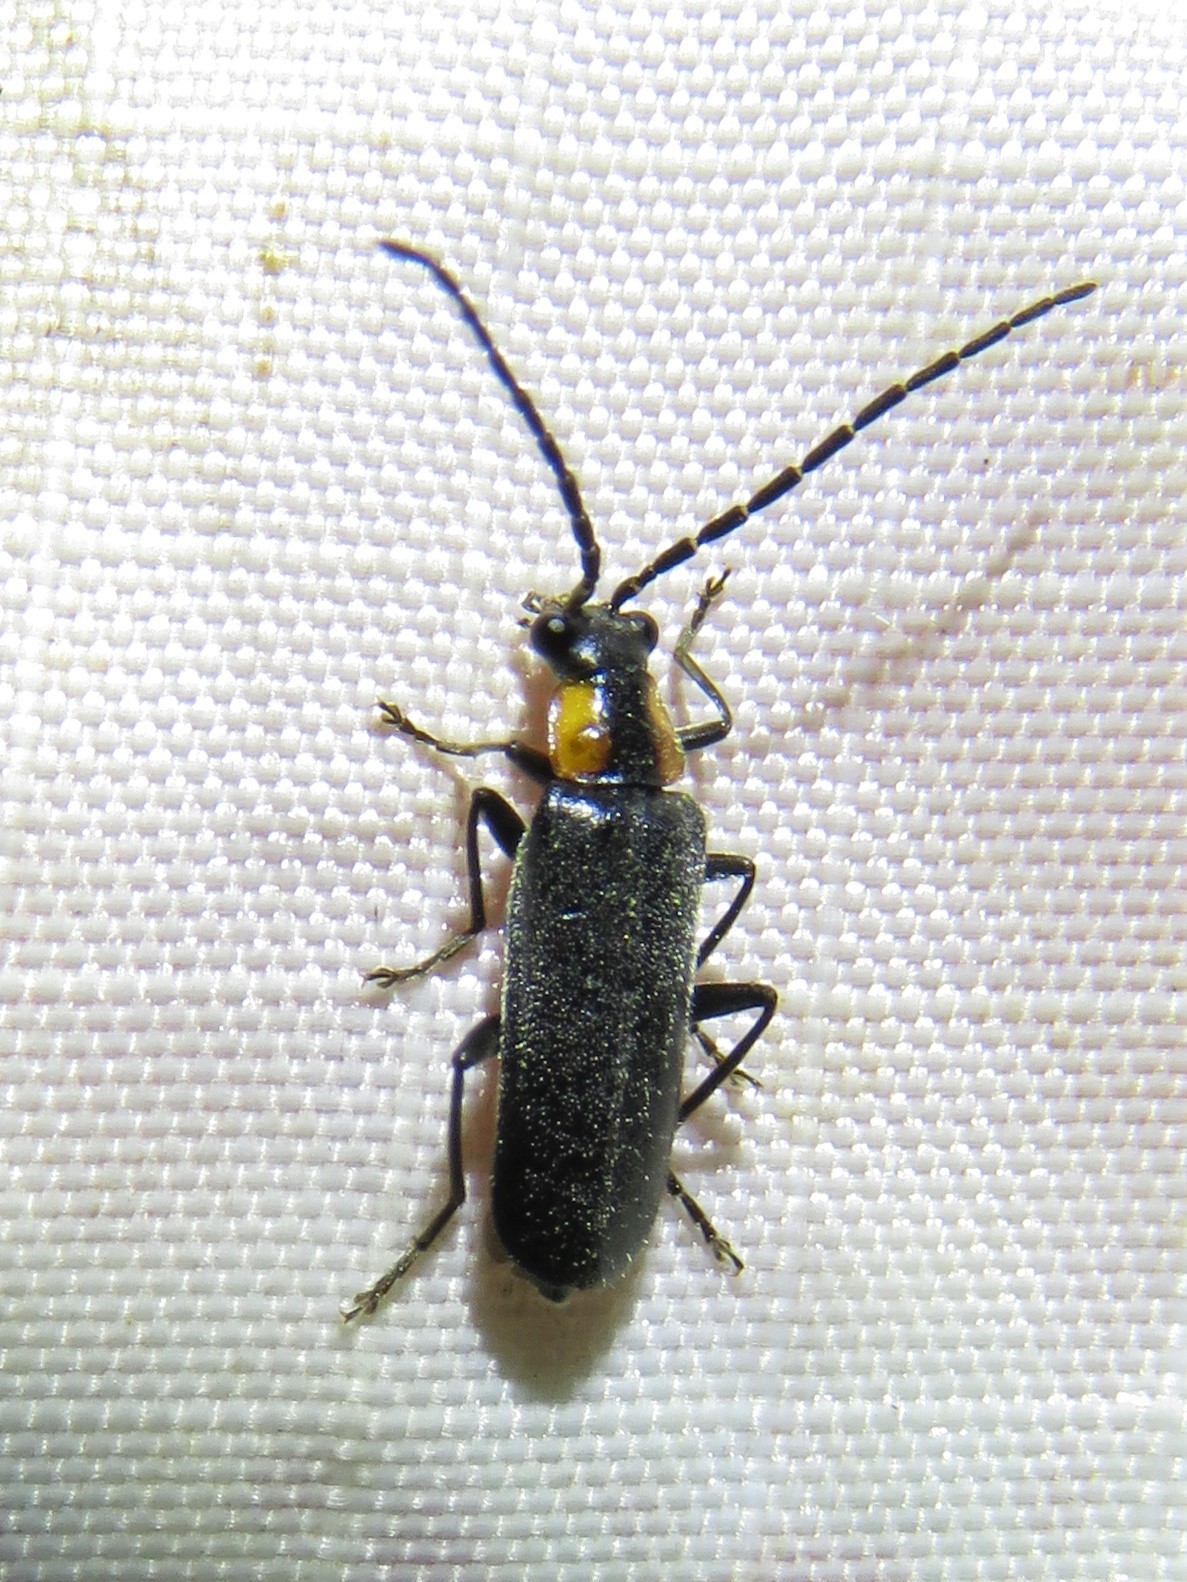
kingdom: Animalia
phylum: Arthropoda
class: Insecta
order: Coleoptera
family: Cantharidae
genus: Rhagonycha
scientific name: Rhagonycha lineola
